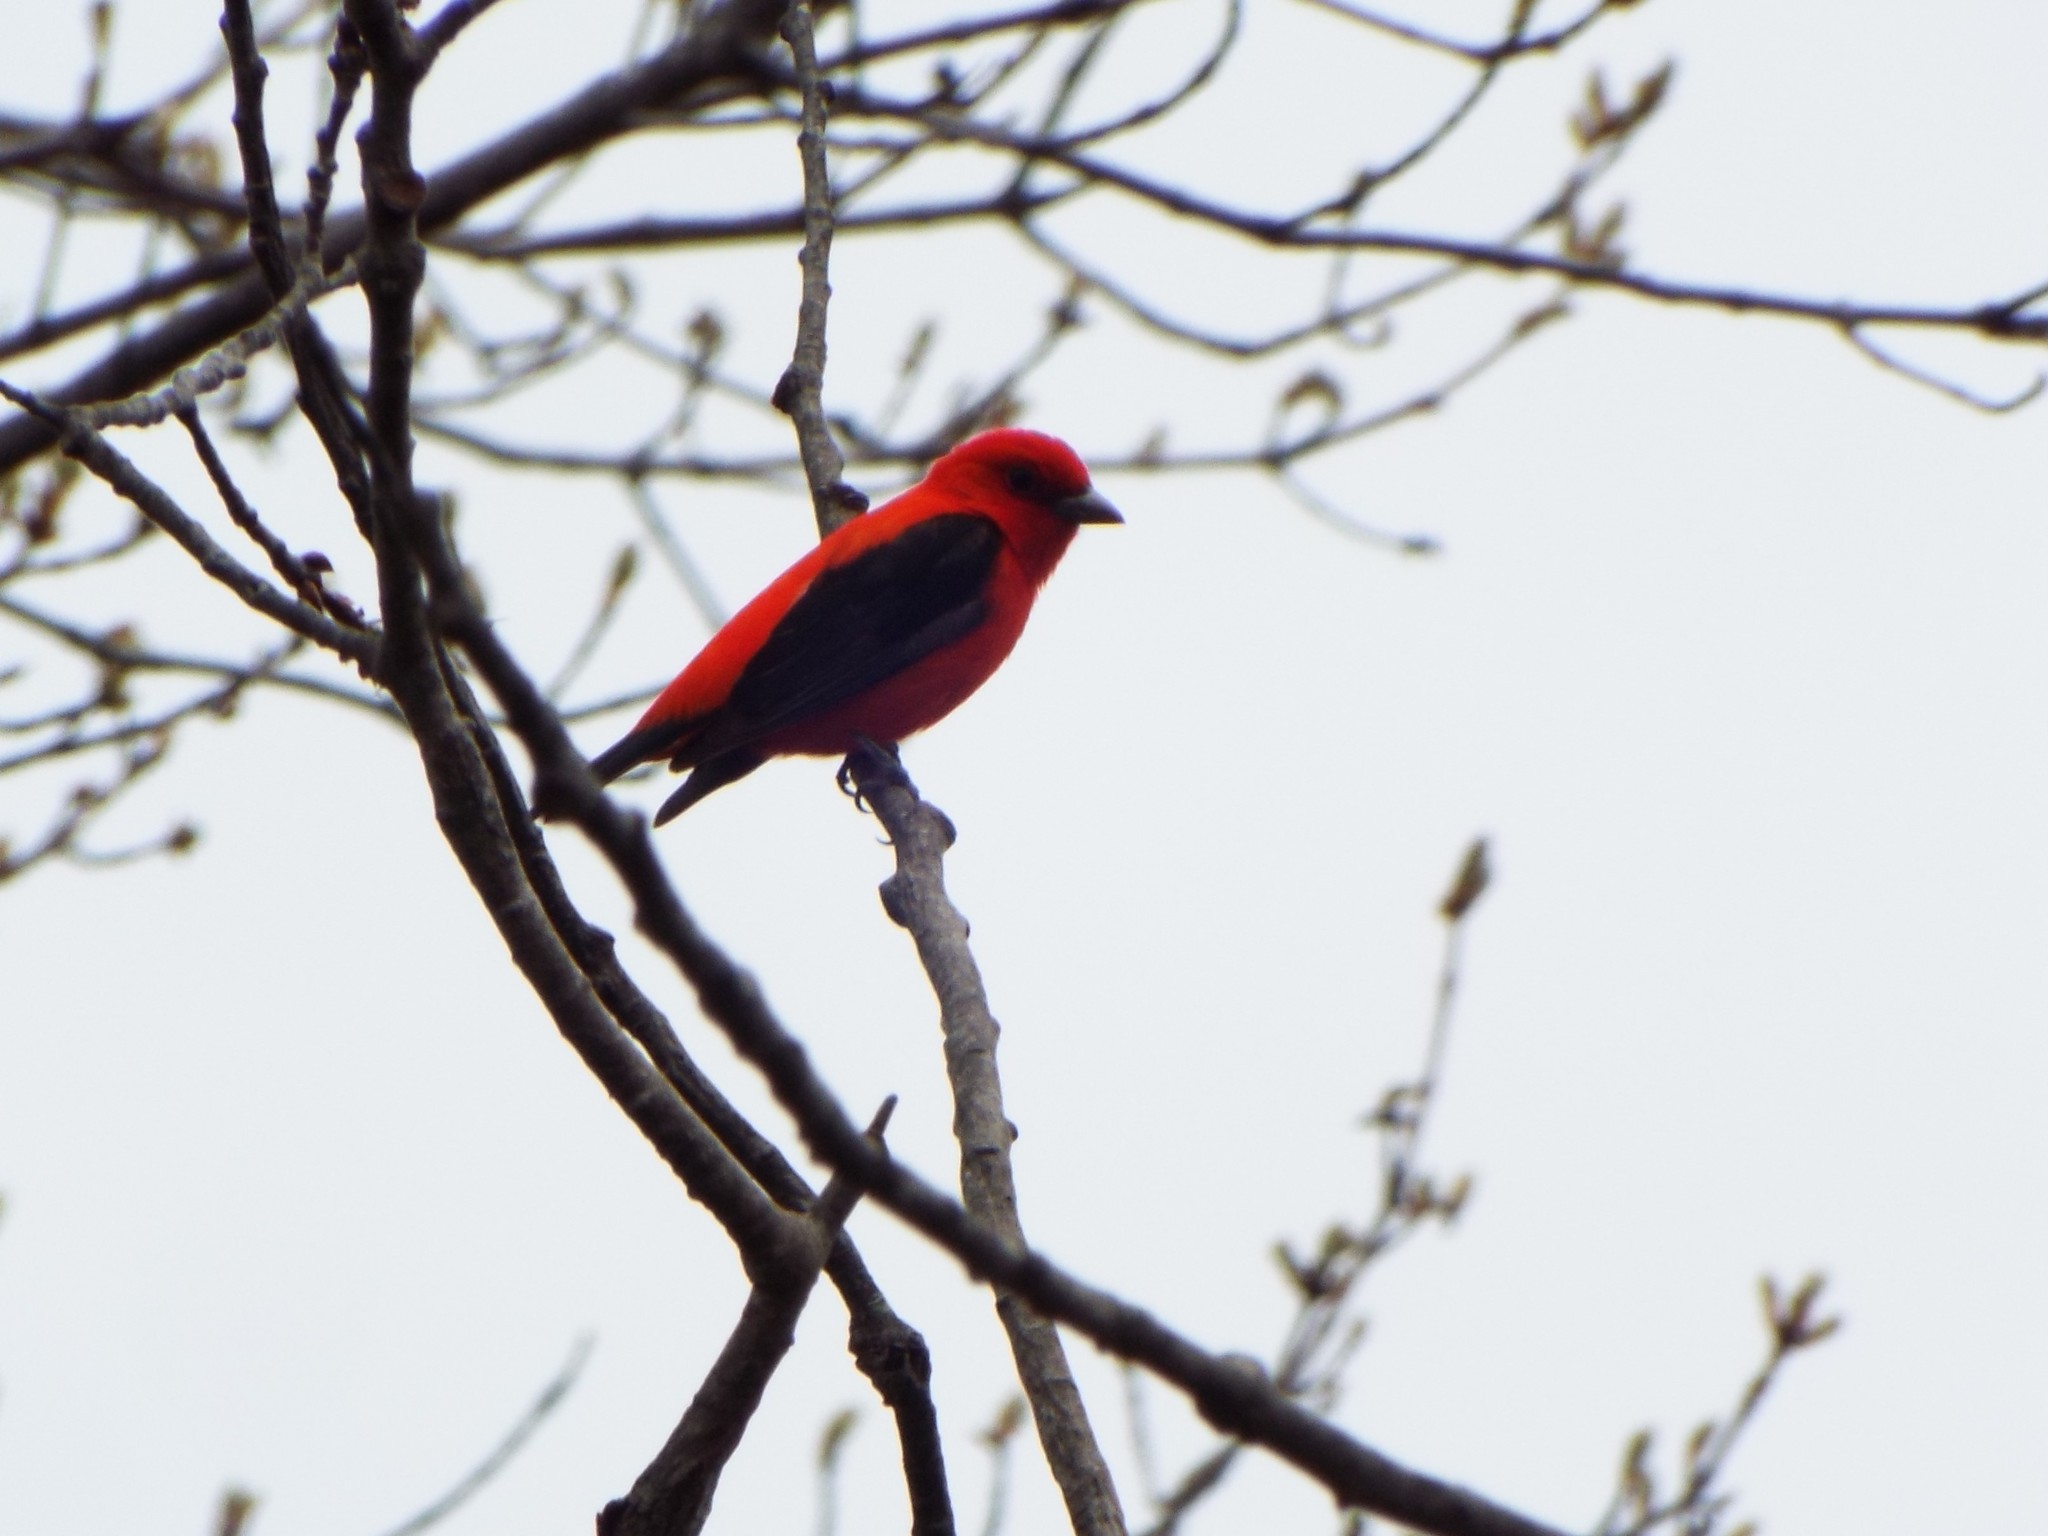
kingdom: Animalia
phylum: Chordata
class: Aves
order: Passeriformes
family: Cardinalidae
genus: Piranga
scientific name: Piranga olivacea
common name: Scarlet tanager
